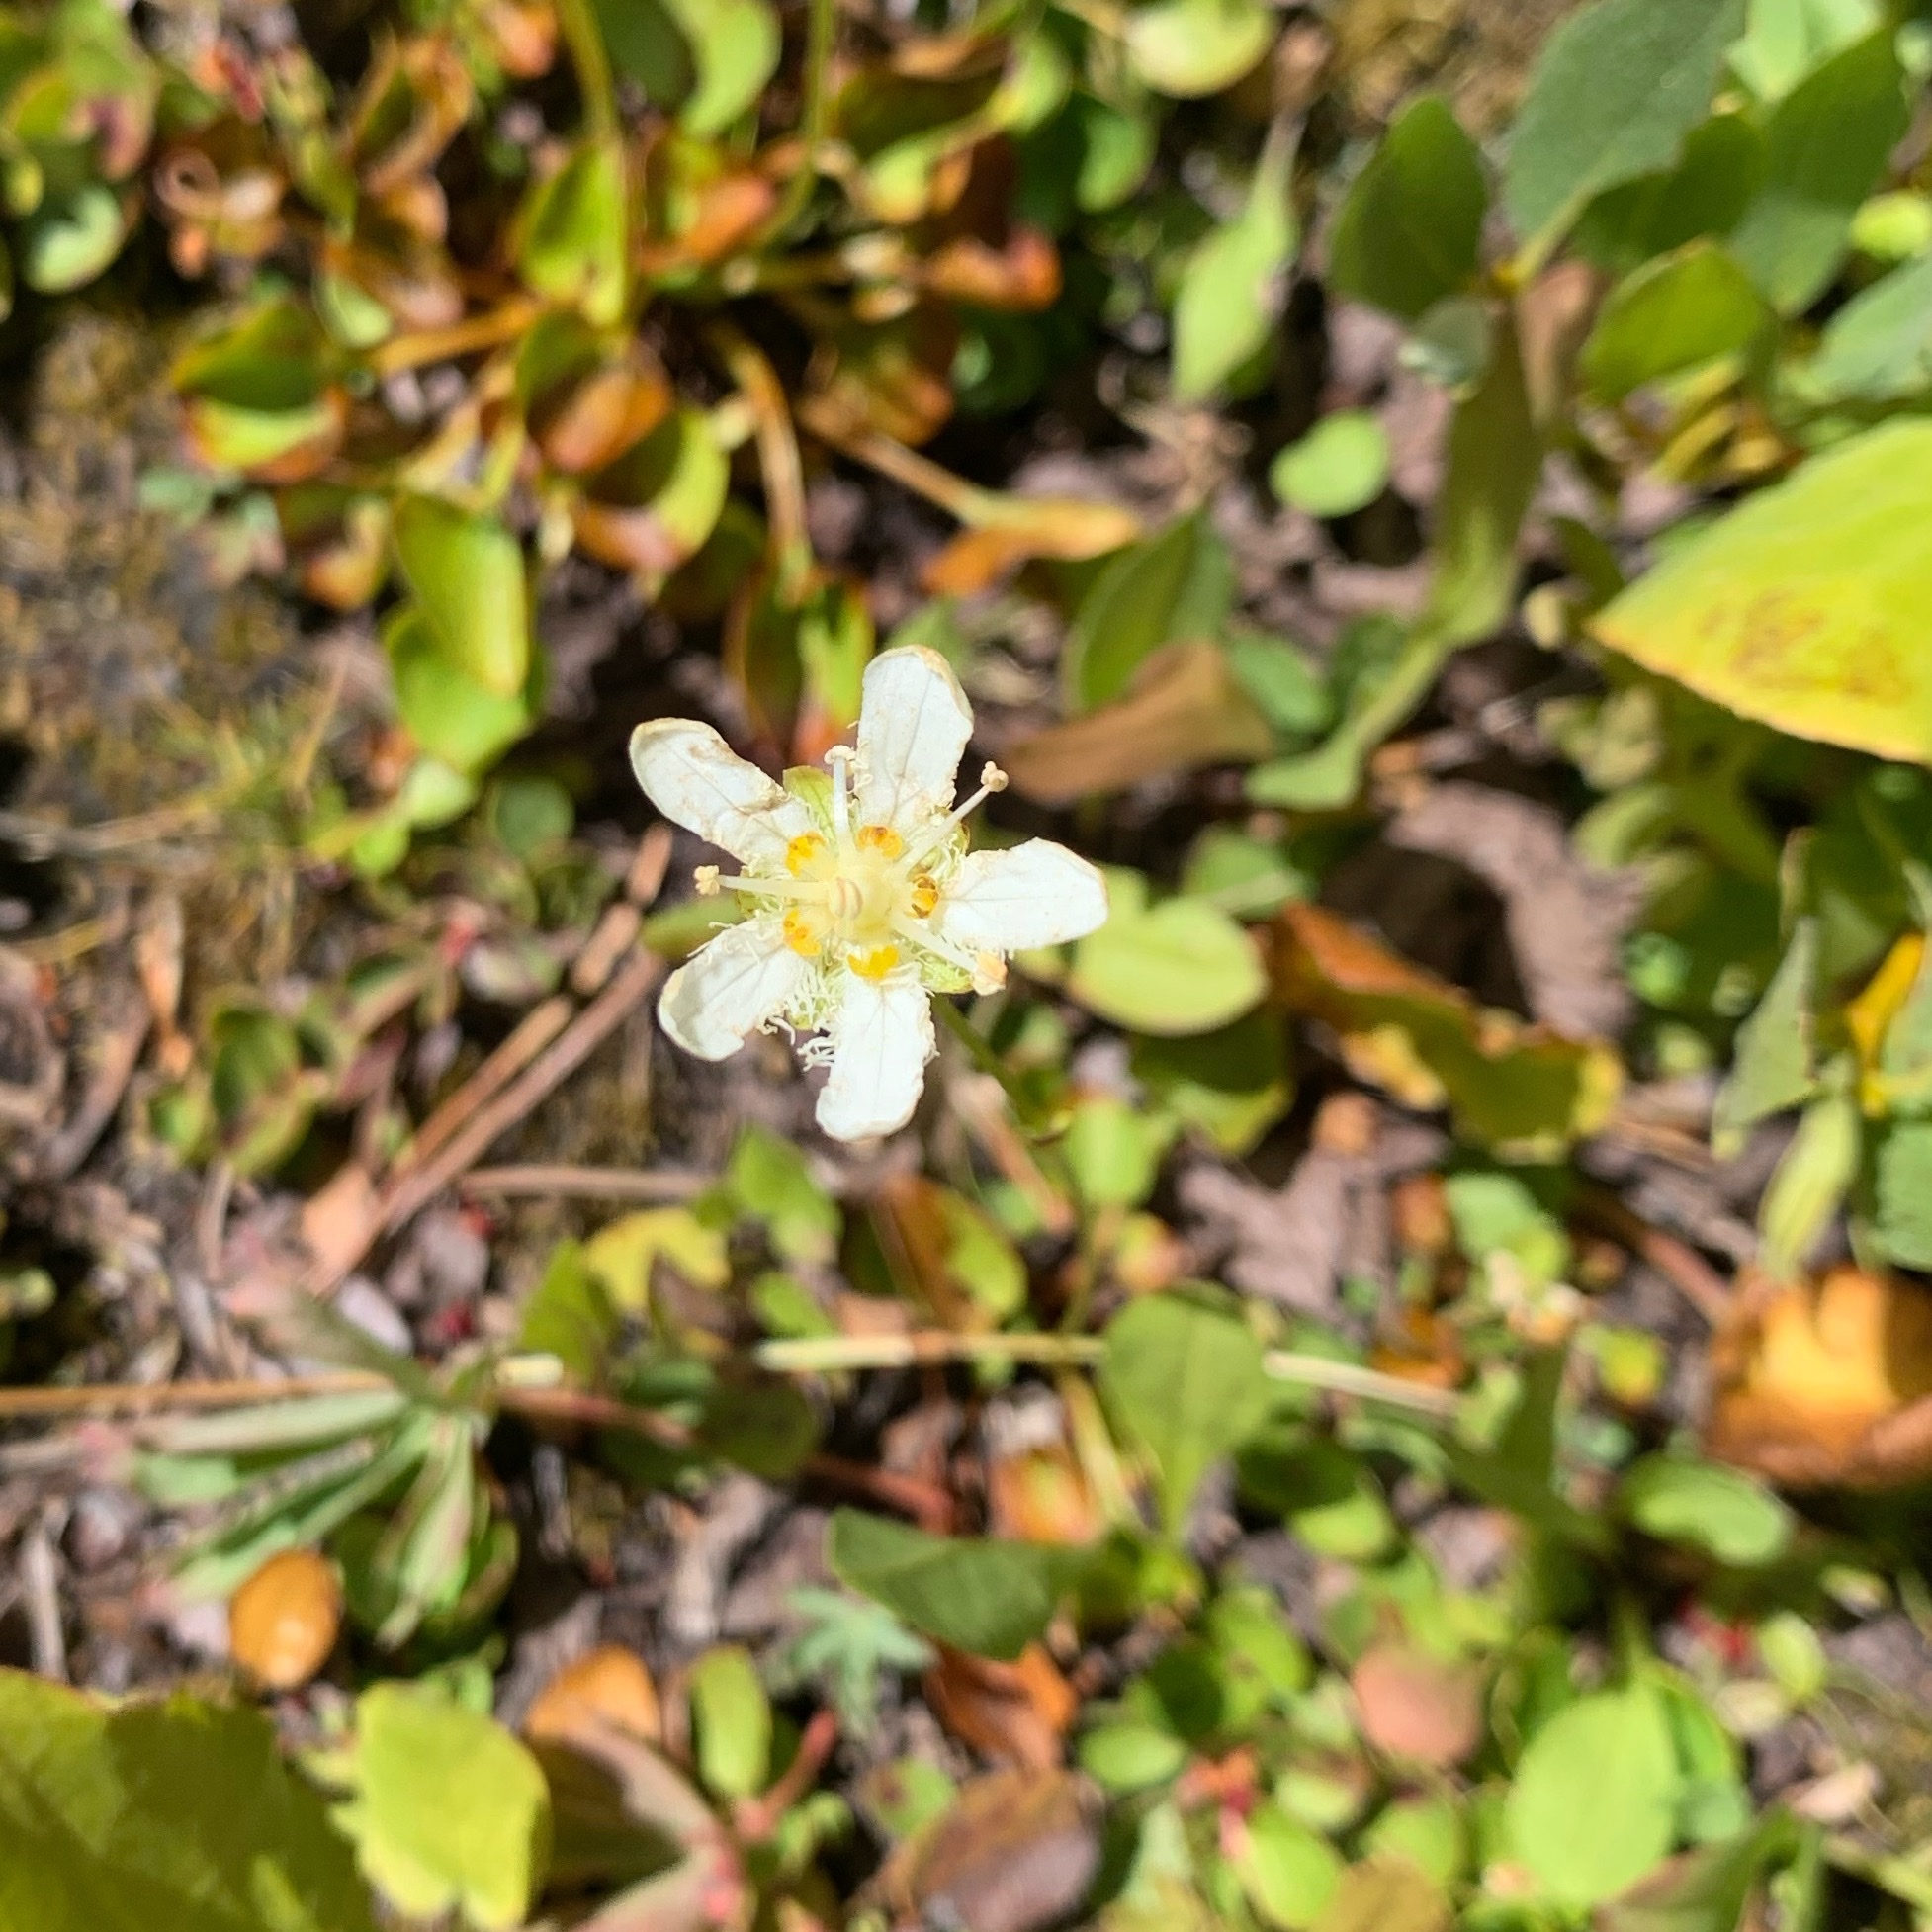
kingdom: Plantae
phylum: Tracheophyta
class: Magnoliopsida
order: Celastrales
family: Parnassiaceae
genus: Parnassia
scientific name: Parnassia fimbriata
